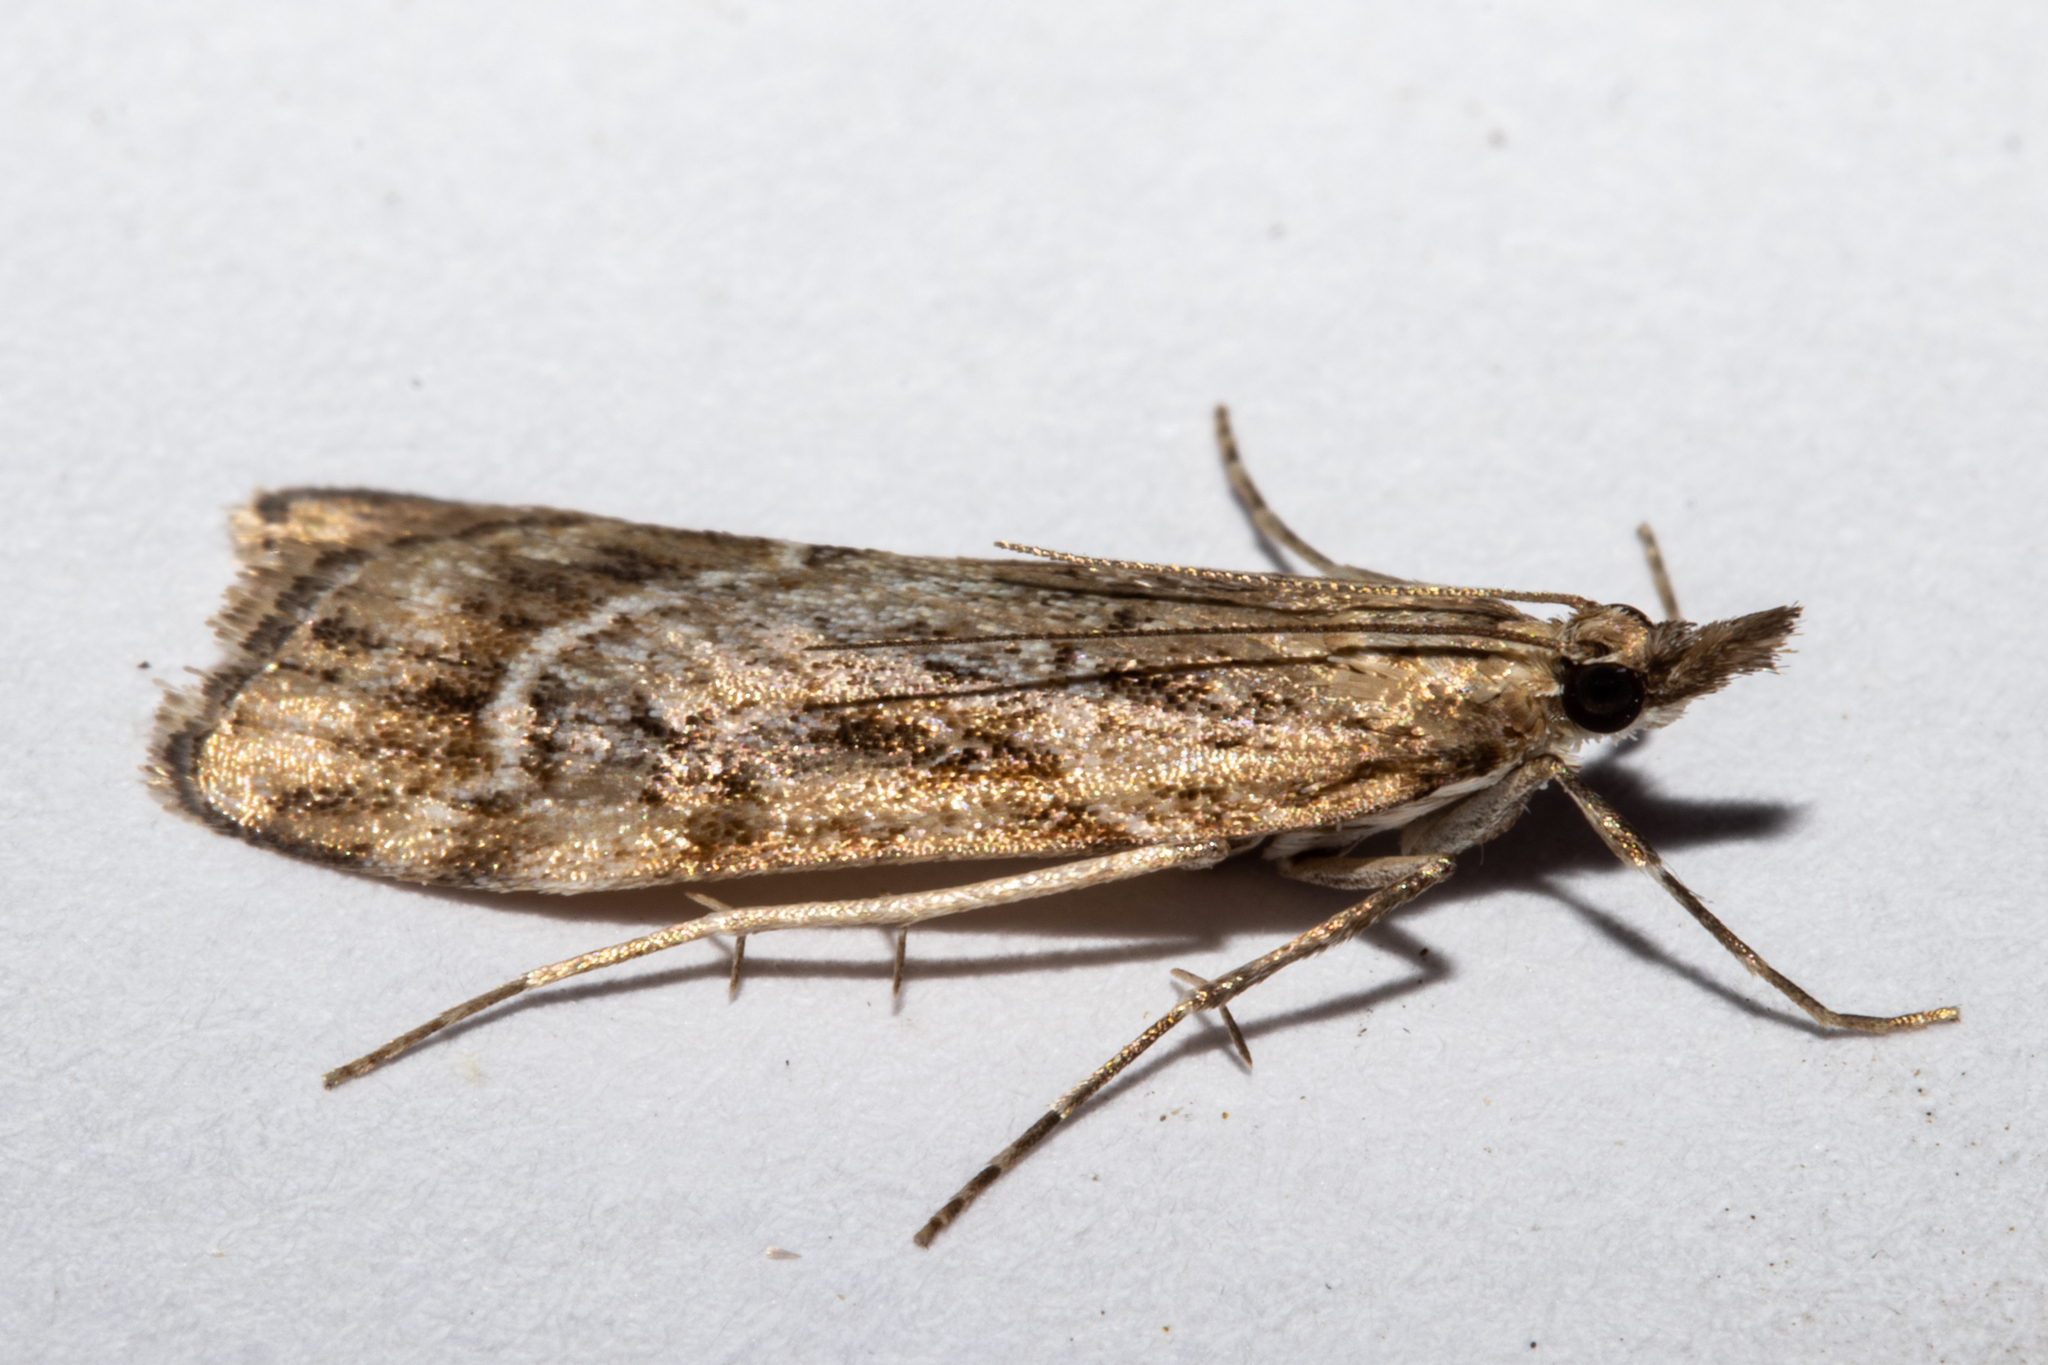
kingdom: Animalia
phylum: Arthropoda
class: Insecta
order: Lepidoptera
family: Crambidae
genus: Eudonia
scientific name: Eudonia chalara
